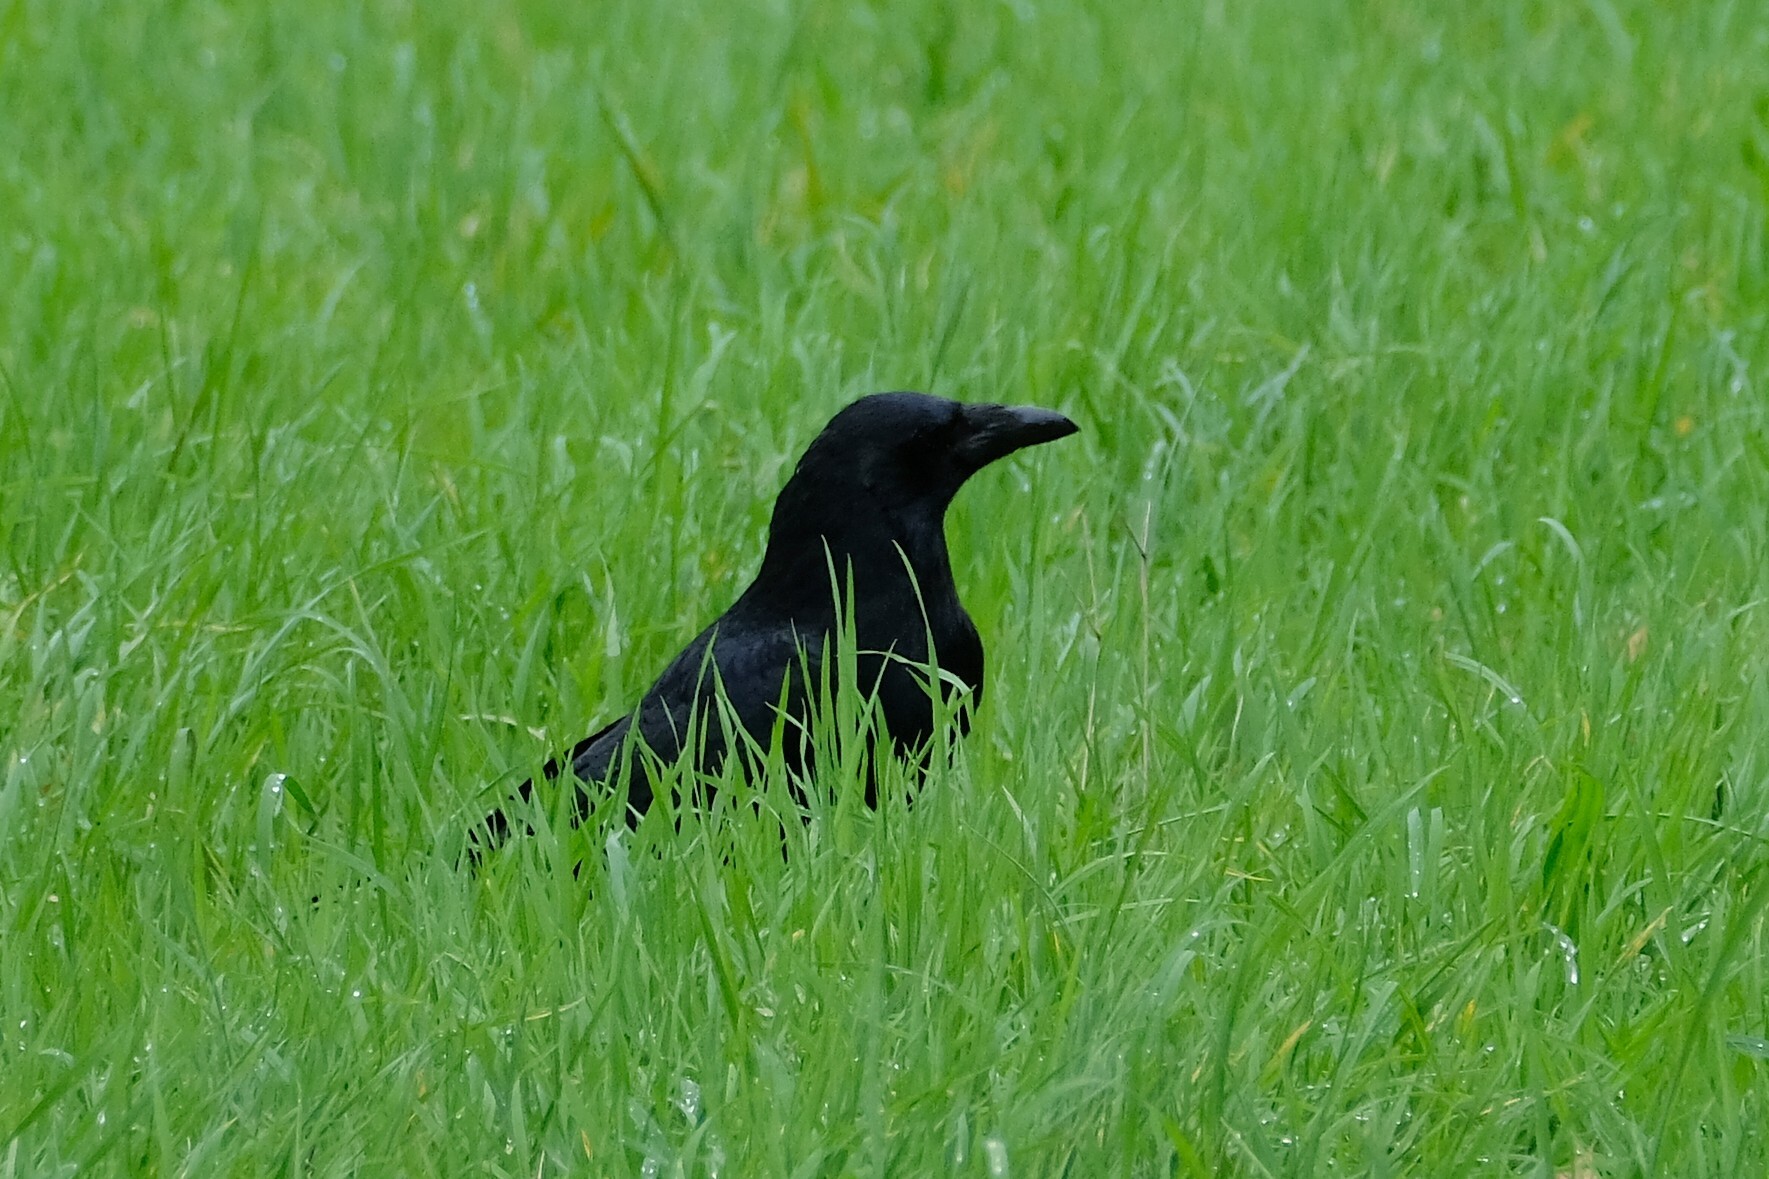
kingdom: Animalia
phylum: Chordata
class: Aves
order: Passeriformes
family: Corvidae
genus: Corvus
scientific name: Corvus corone
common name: Carrion crow
